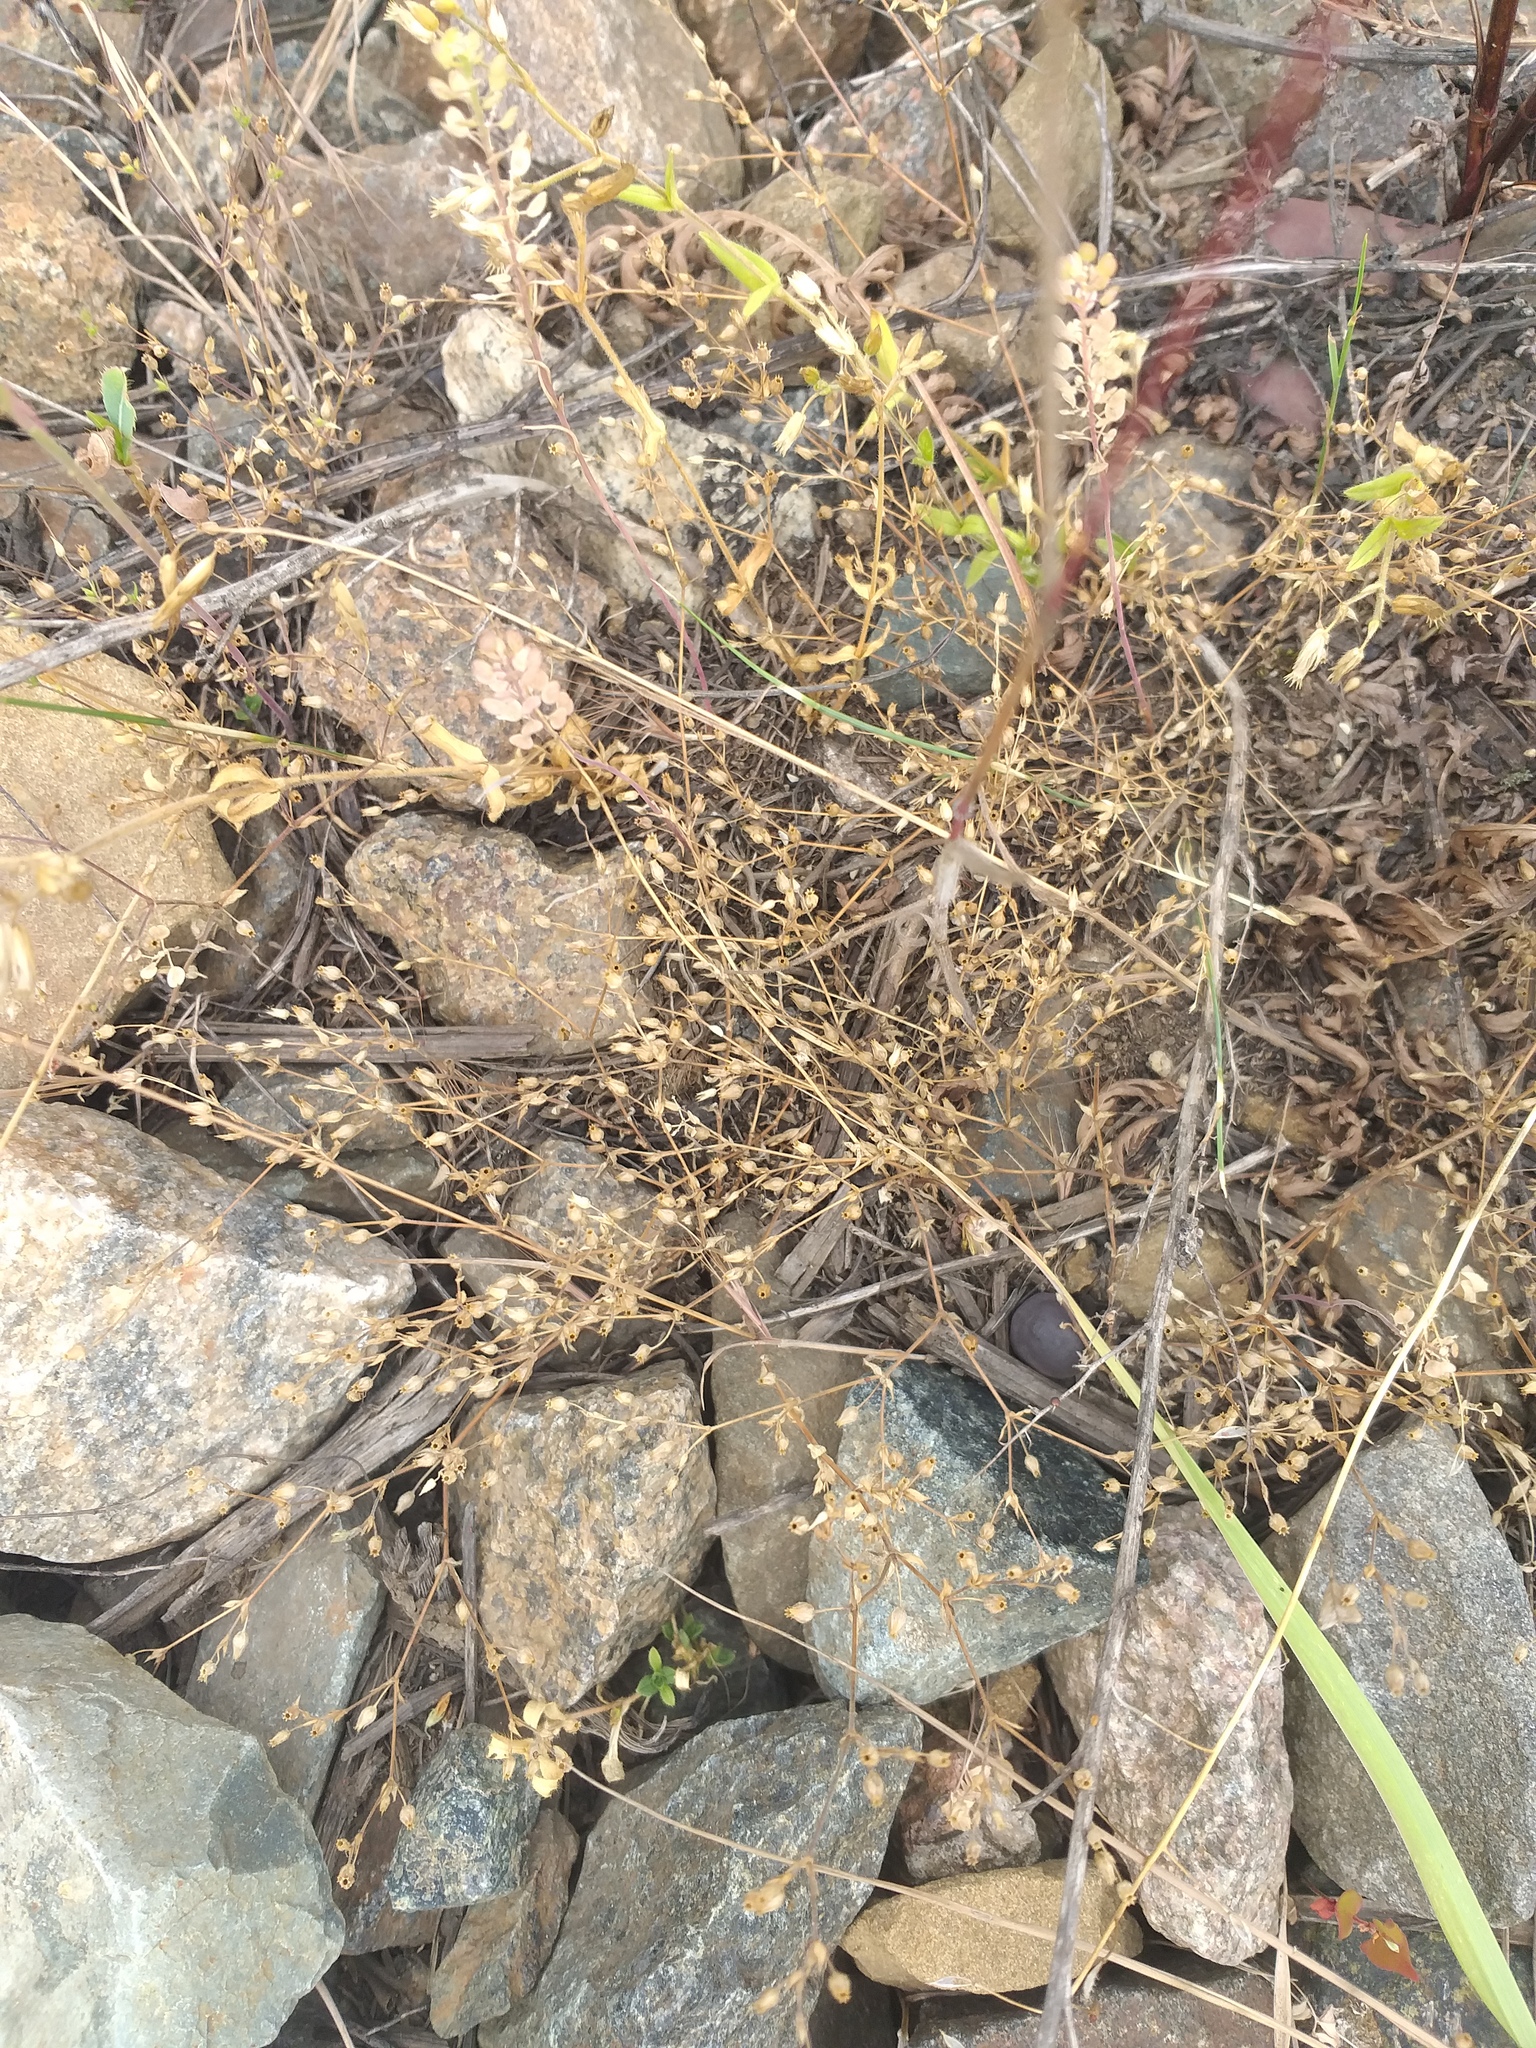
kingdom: Plantae
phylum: Tracheophyta
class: Magnoliopsida
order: Caryophyllales
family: Caryophyllaceae
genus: Arenaria
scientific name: Arenaria serpyllifolia
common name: Thyme-leaved sandwort
